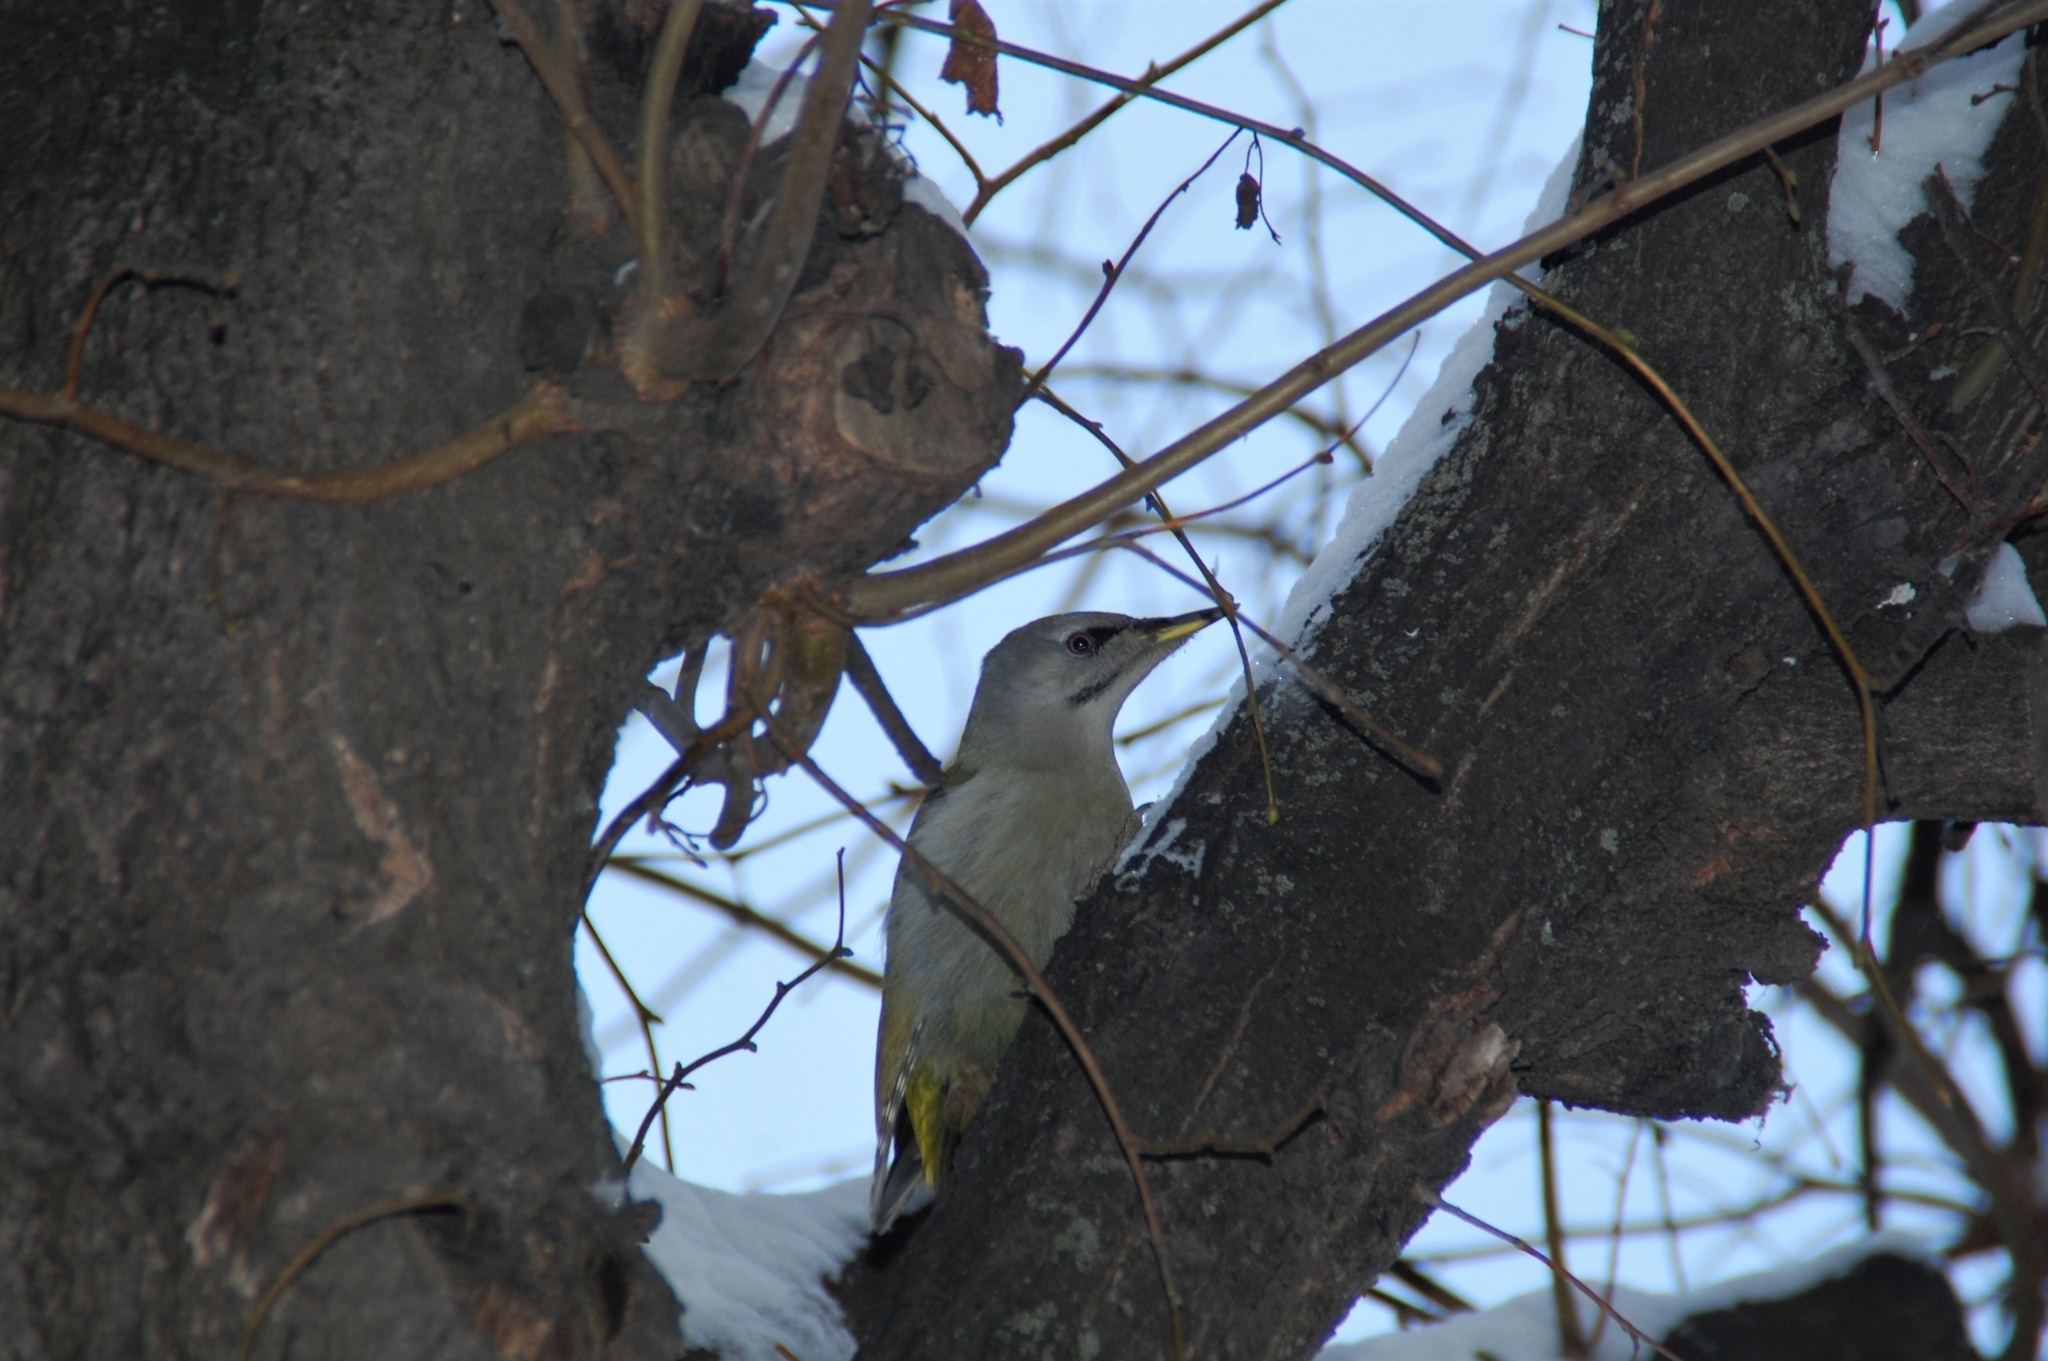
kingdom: Animalia
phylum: Chordata
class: Aves
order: Piciformes
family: Picidae
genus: Picus
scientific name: Picus canus
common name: Grey-headed woodpecker
